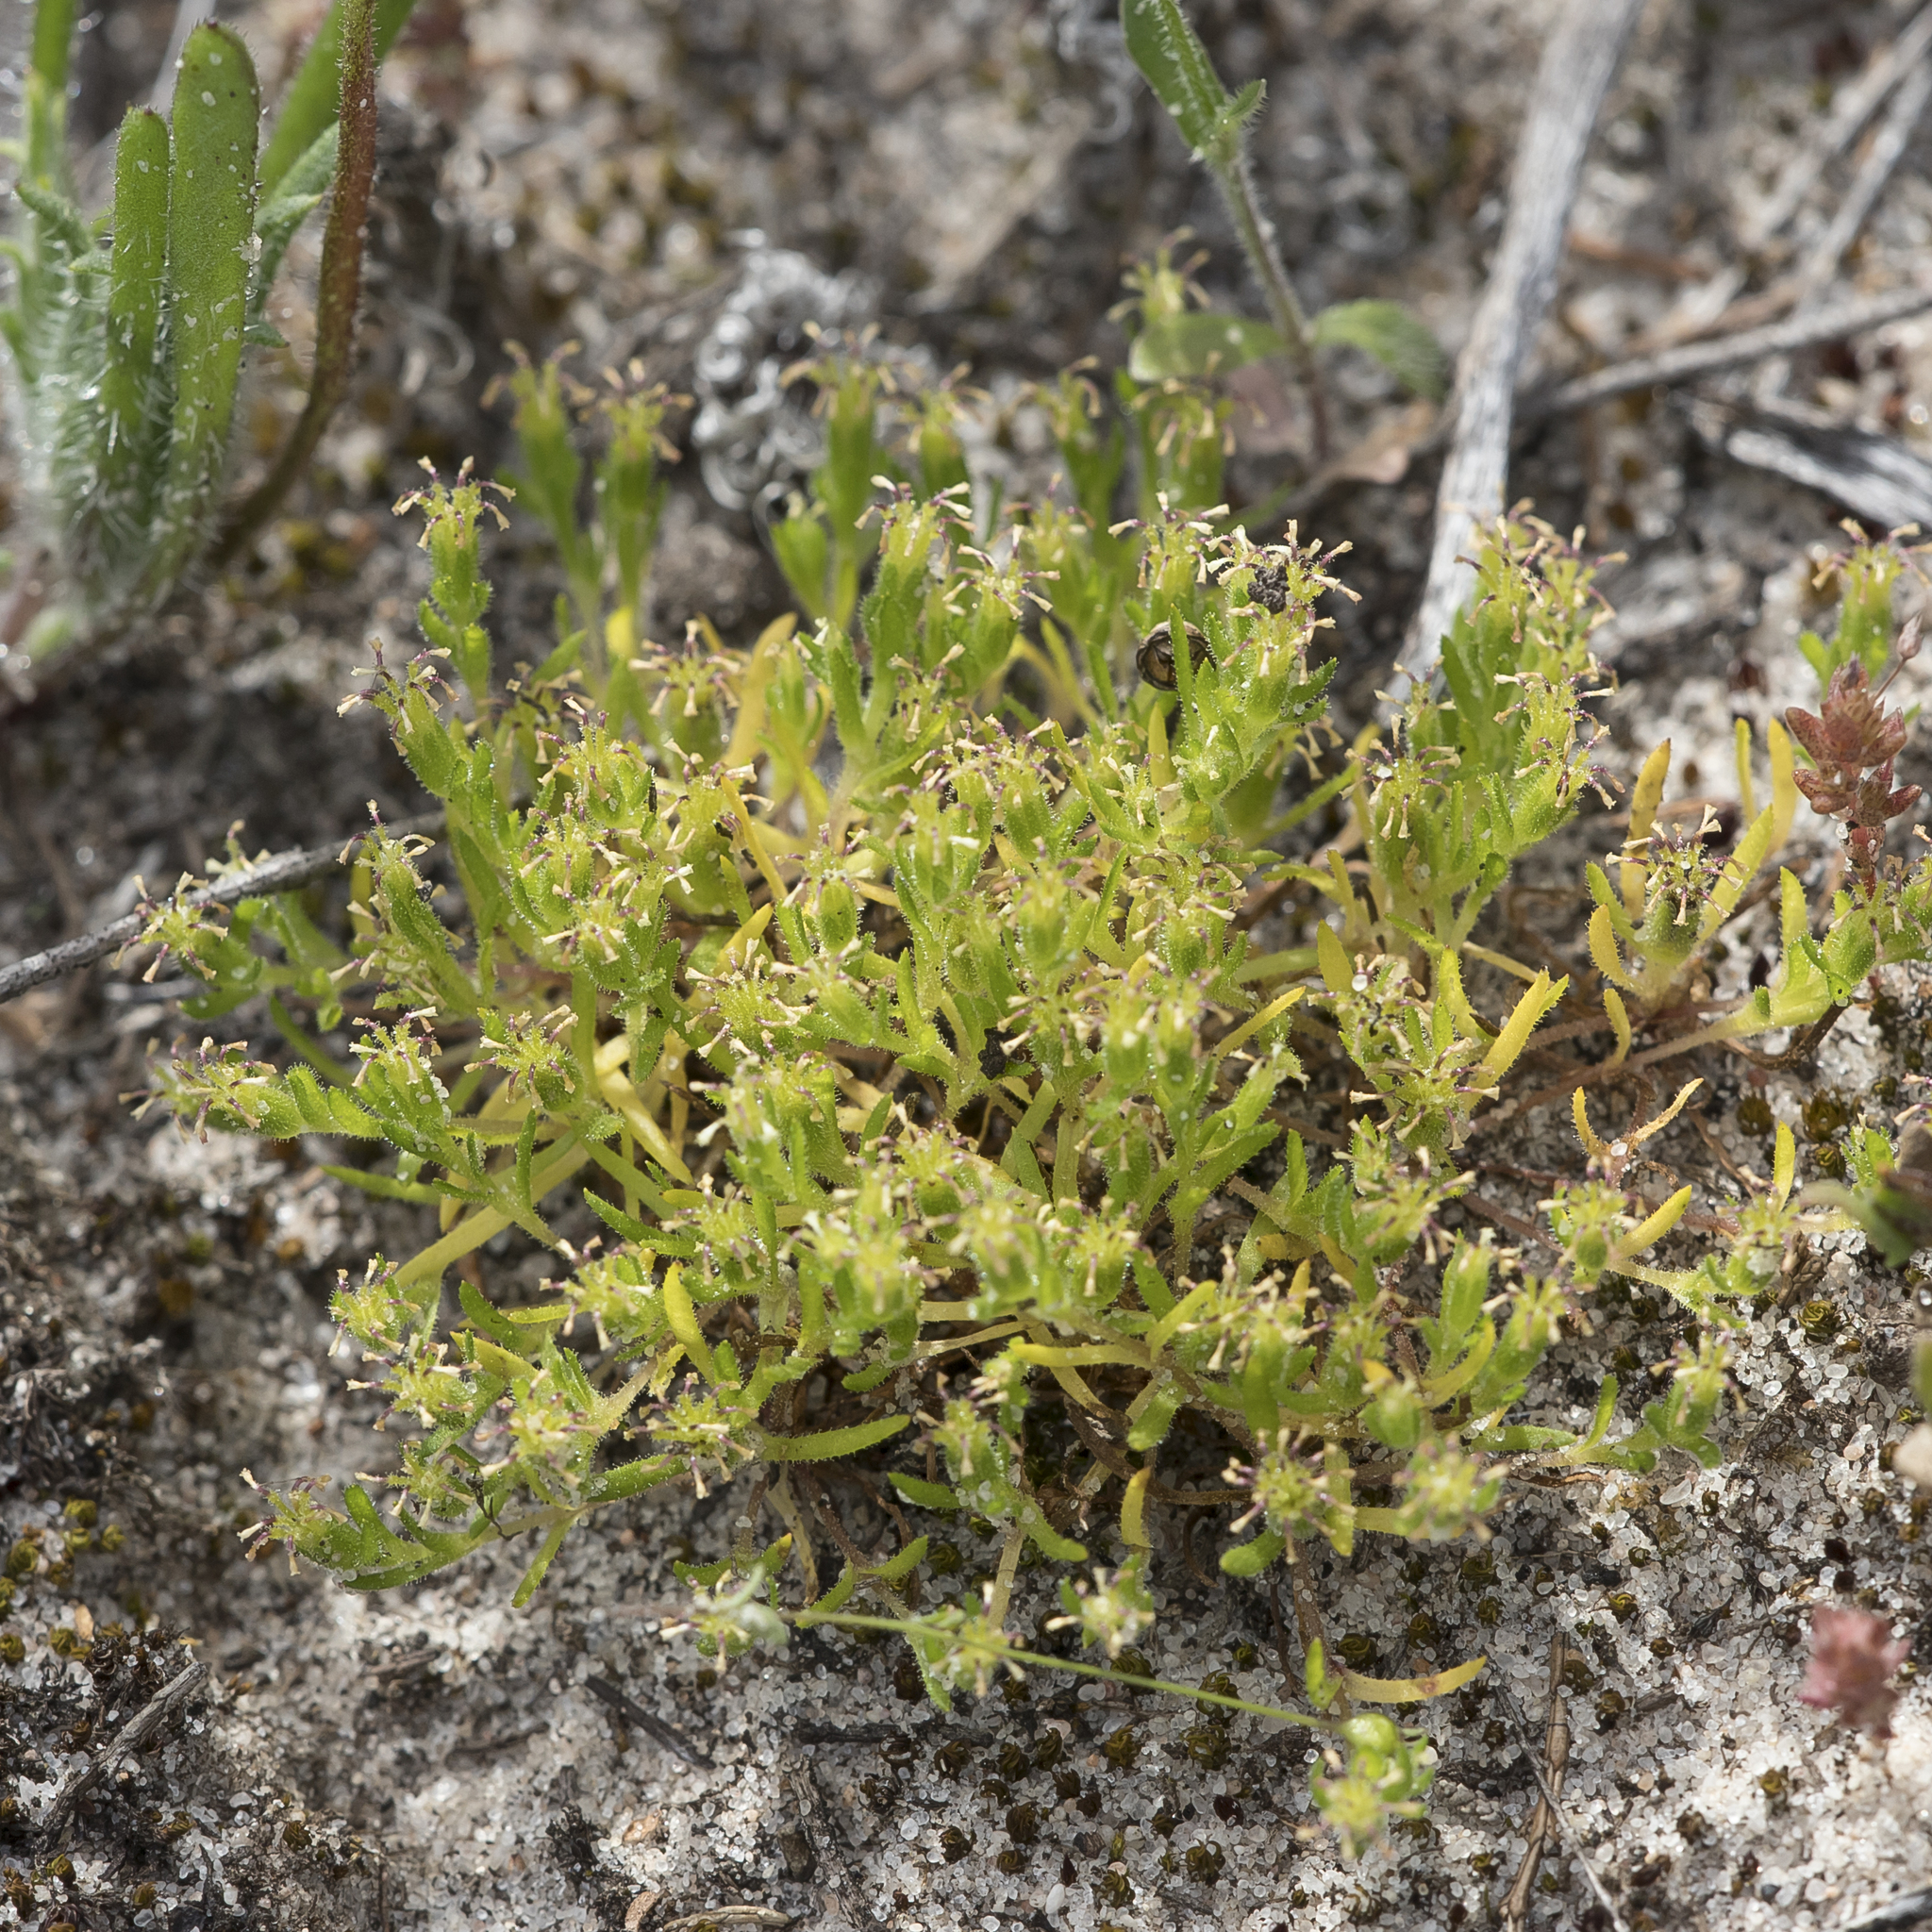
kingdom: Plantae
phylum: Tracheophyta
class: Magnoliopsida
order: Asterales
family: Asteraceae
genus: Millotia
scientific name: Millotia muelleri
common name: Common bow-flower
